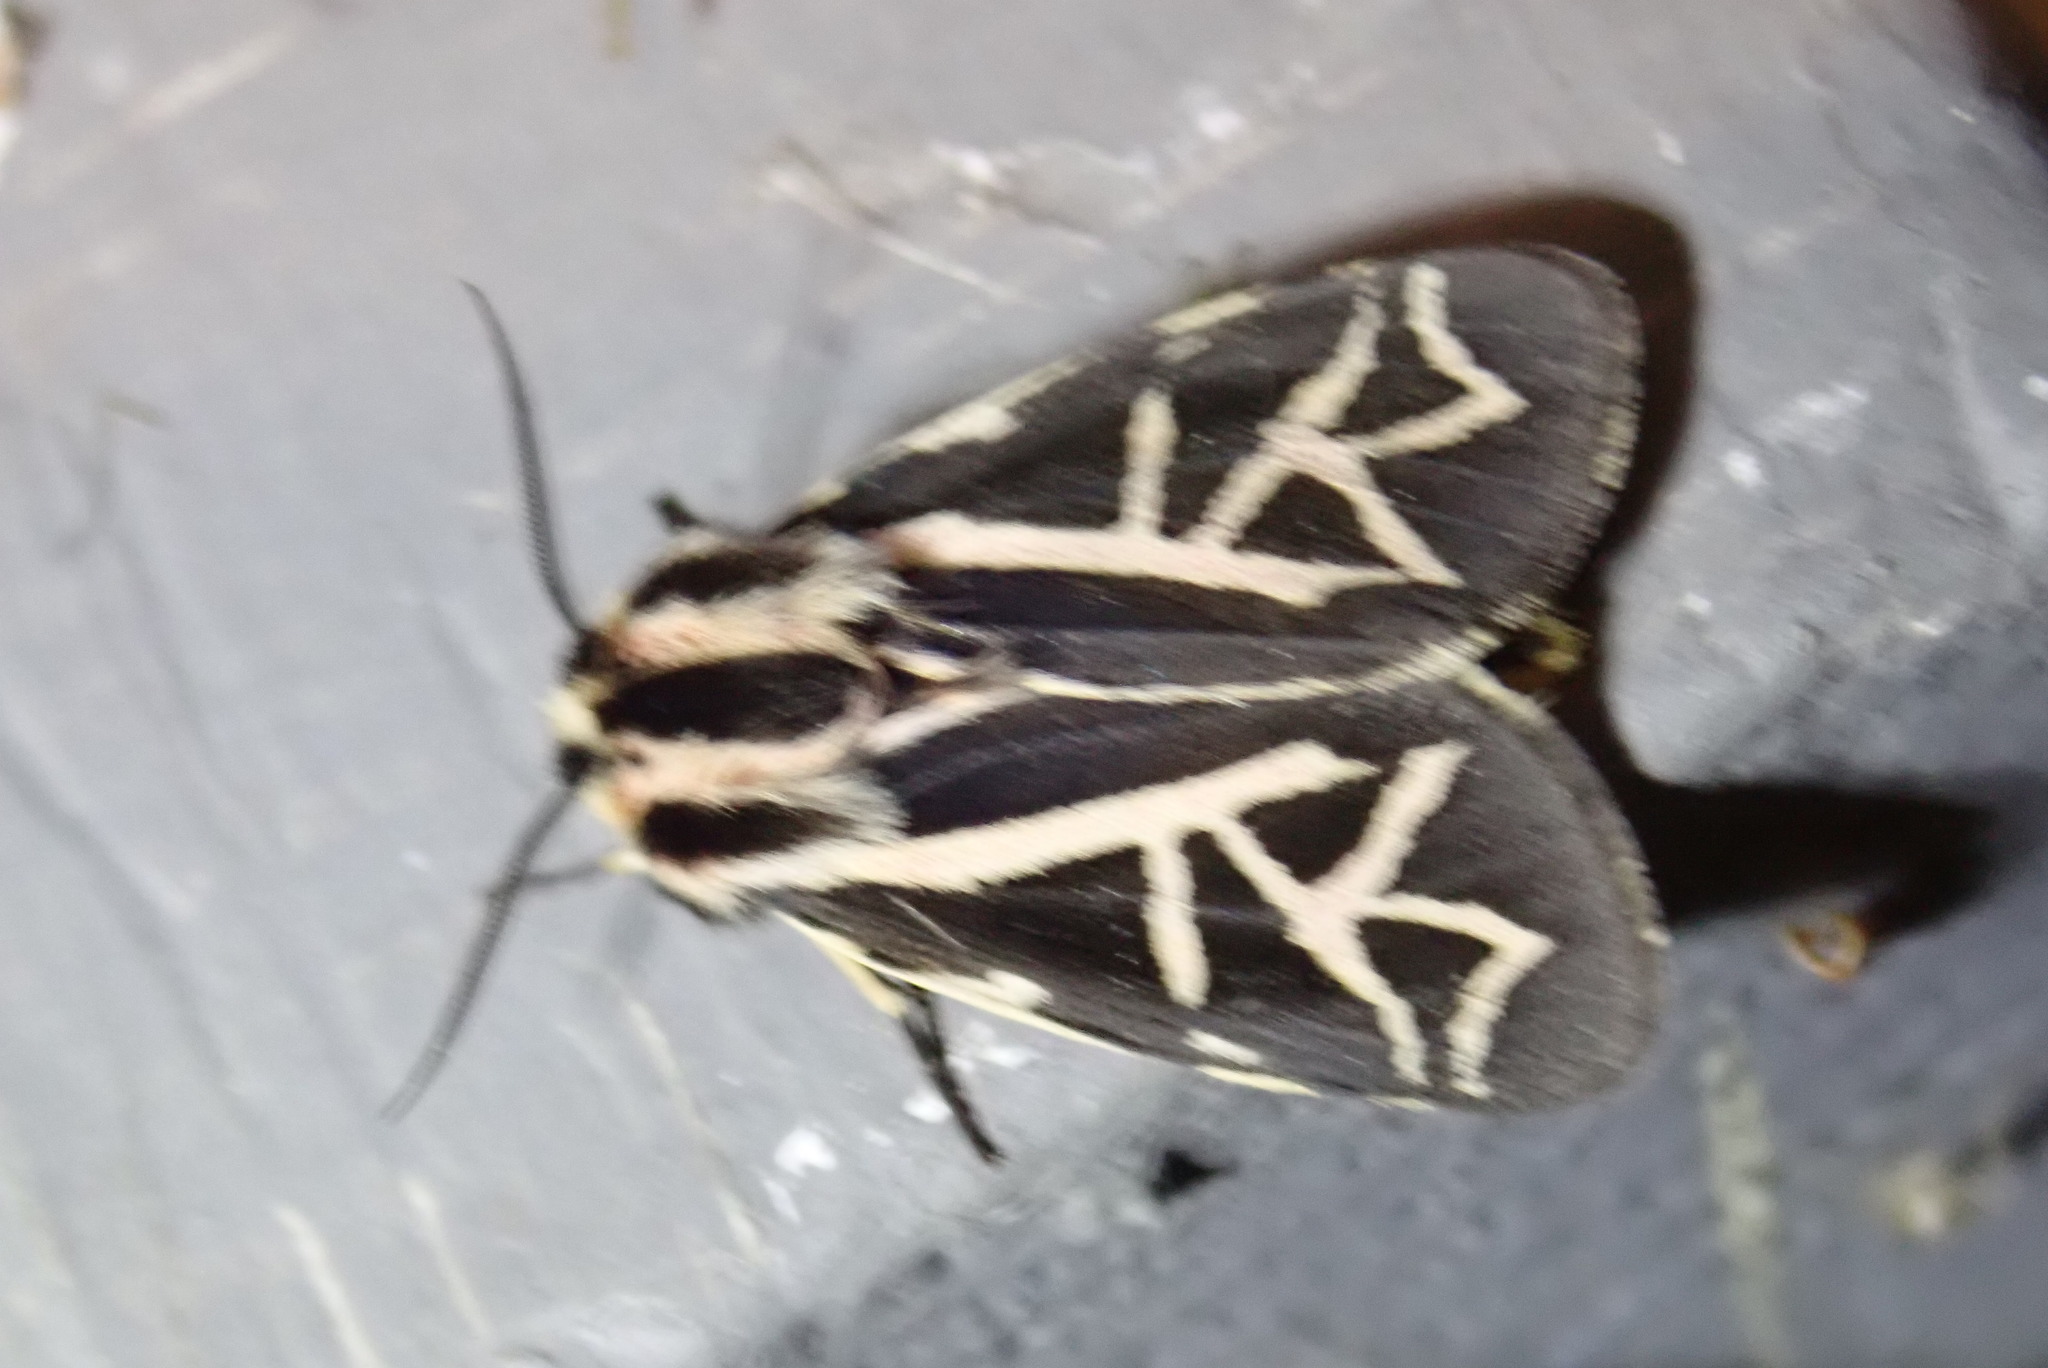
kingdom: Animalia
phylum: Arthropoda
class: Insecta
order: Lepidoptera
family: Erebidae
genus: Apantesis
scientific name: Apantesis
